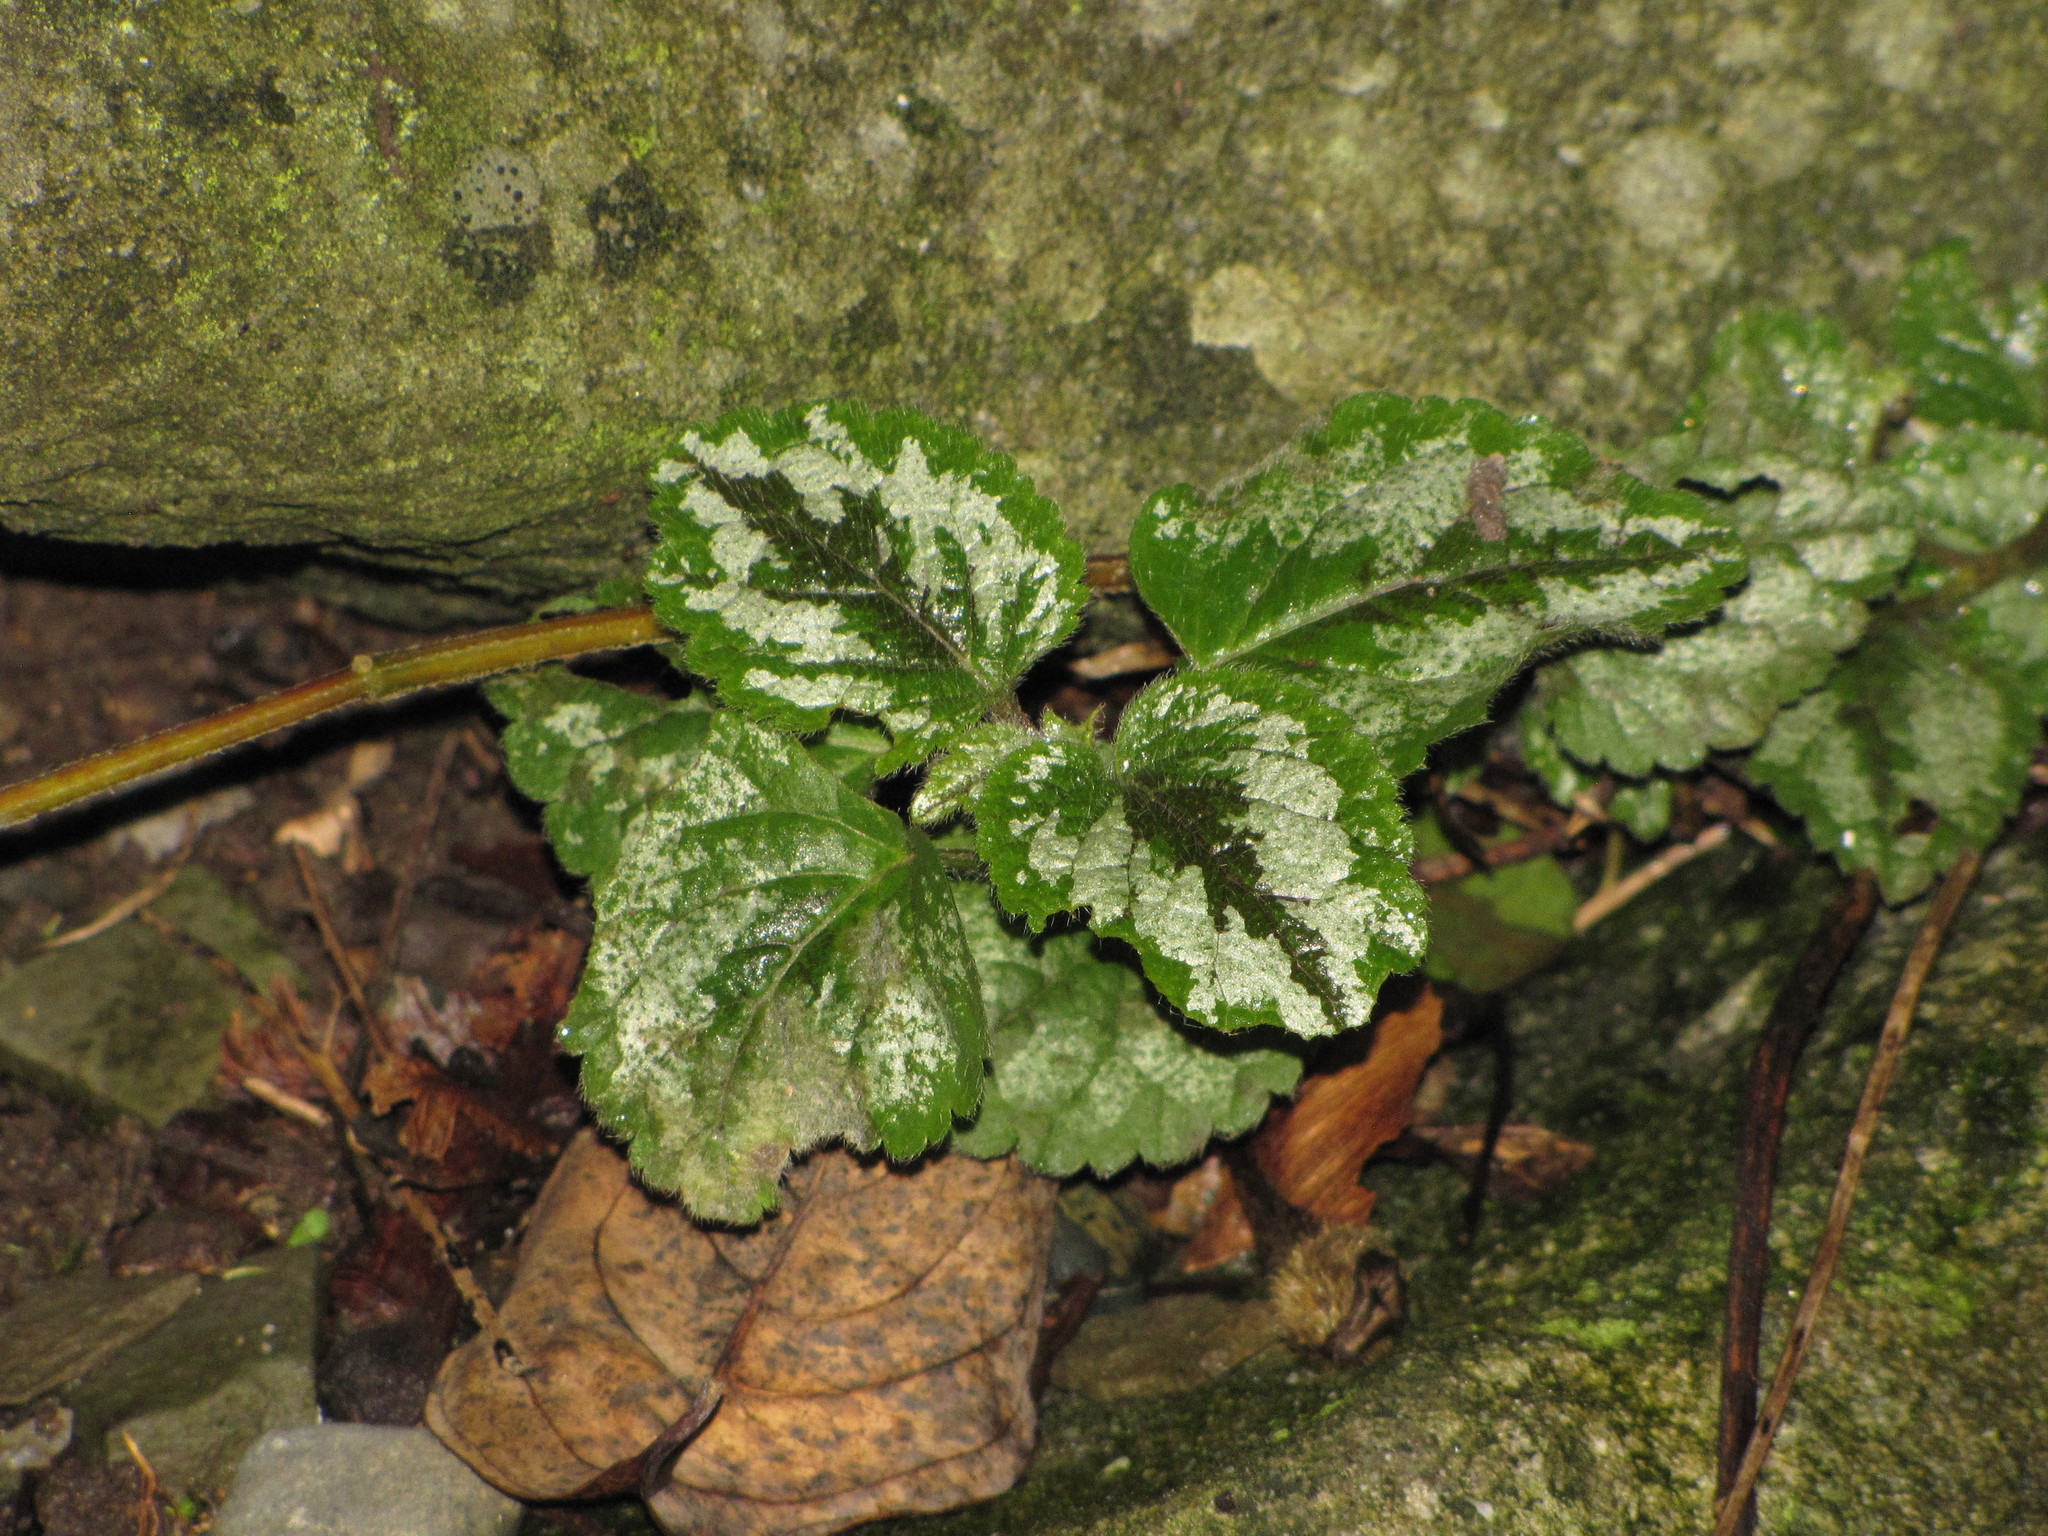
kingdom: Plantae
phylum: Tracheophyta
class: Magnoliopsida
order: Lamiales
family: Lamiaceae
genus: Lamium
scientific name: Lamium galeobdolon
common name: Yellow archangel
